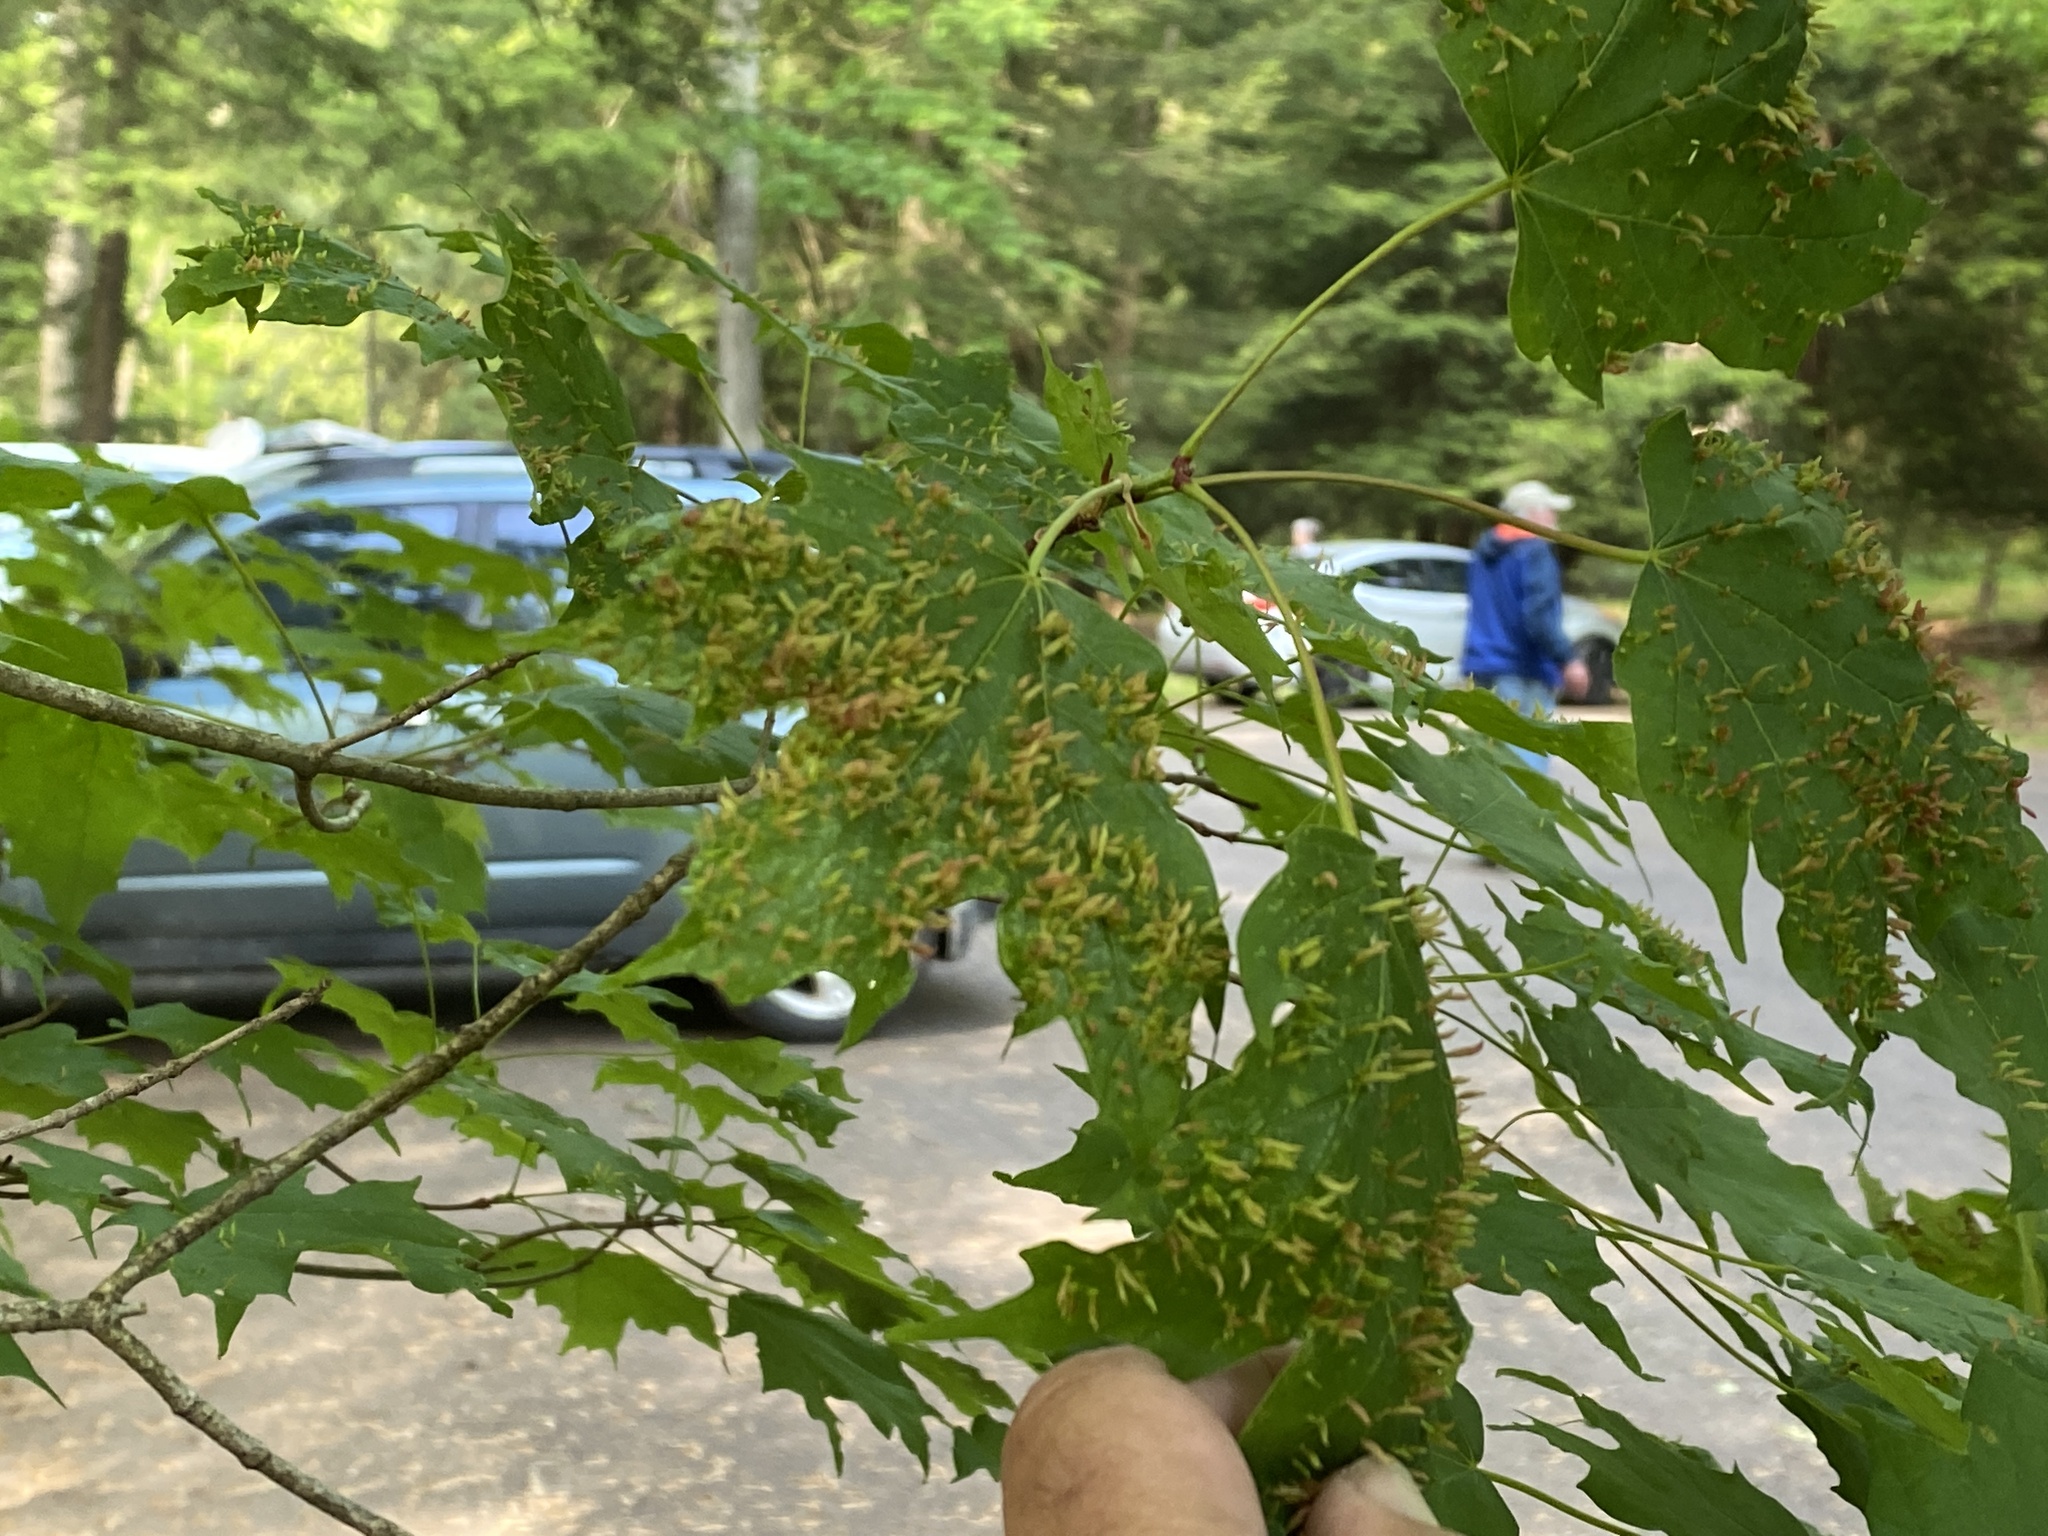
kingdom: Animalia
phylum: Arthropoda
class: Arachnida
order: Trombidiformes
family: Eriophyidae
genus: Vasates
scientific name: Vasates aceriscrumena
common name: Maple spindle gall mite
